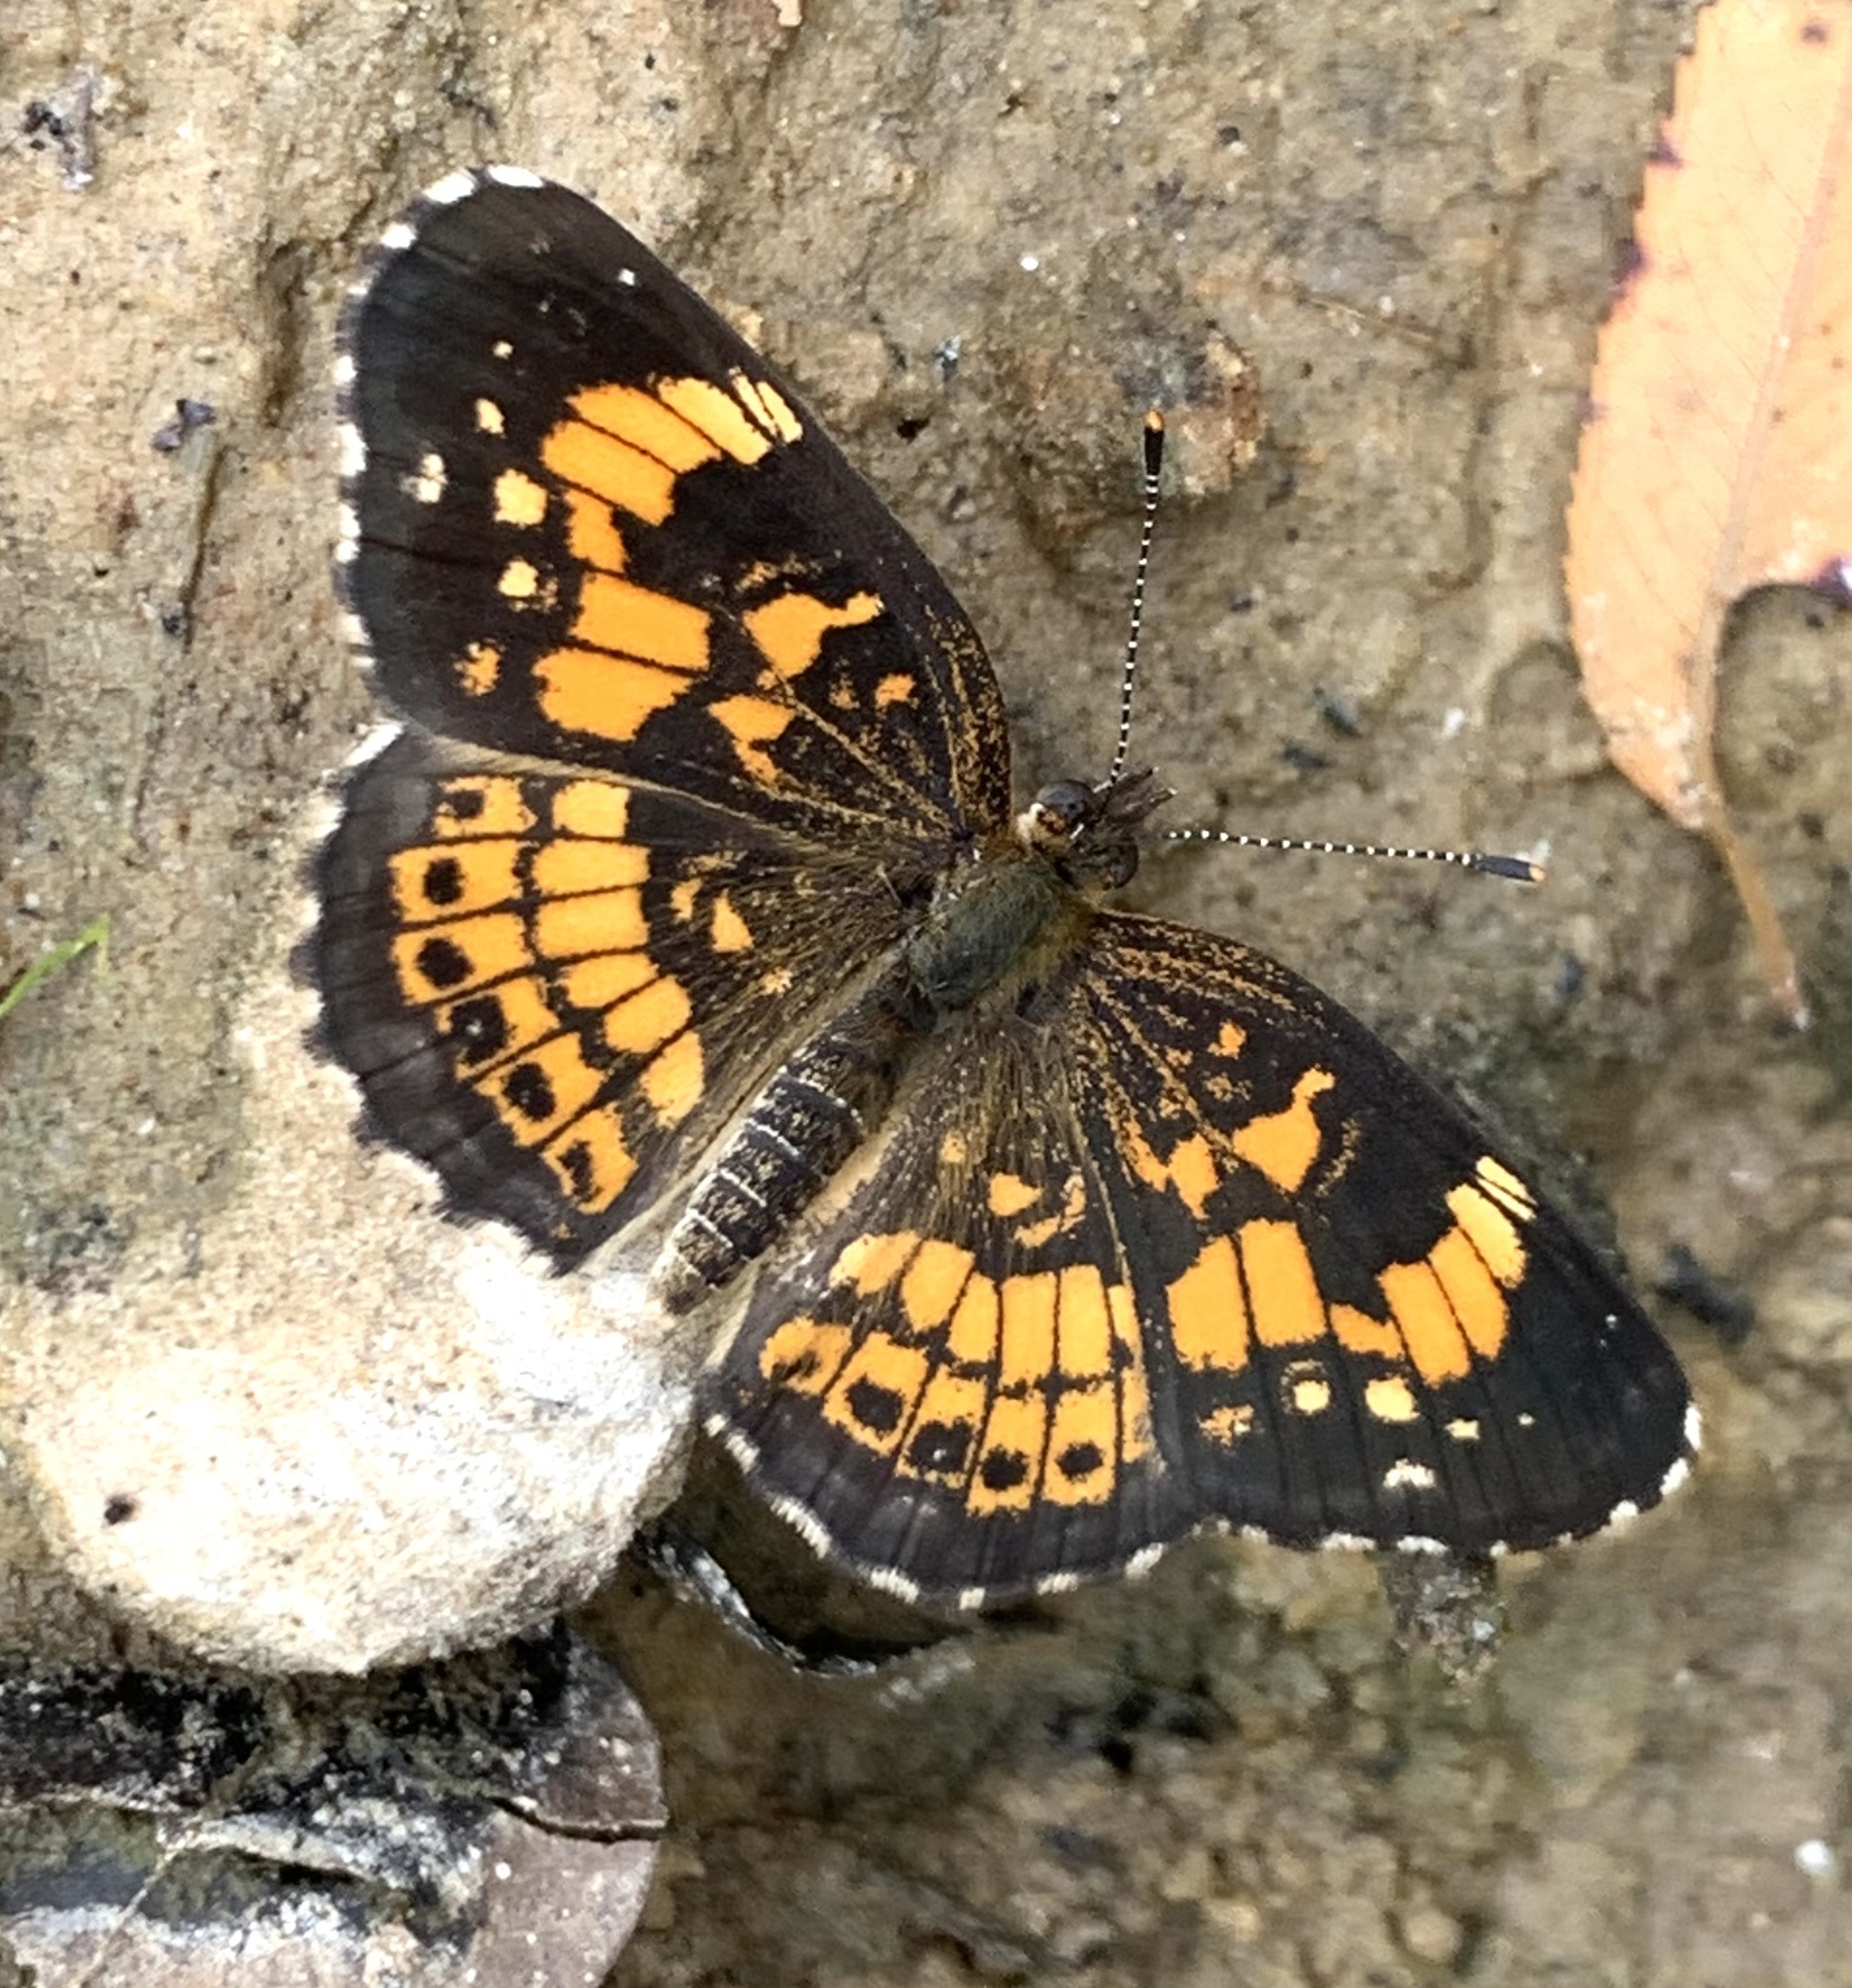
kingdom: Animalia
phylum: Arthropoda
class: Insecta
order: Lepidoptera
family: Nymphalidae
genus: Chlosyne
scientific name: Chlosyne nycteis
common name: Silvery checkerspot
